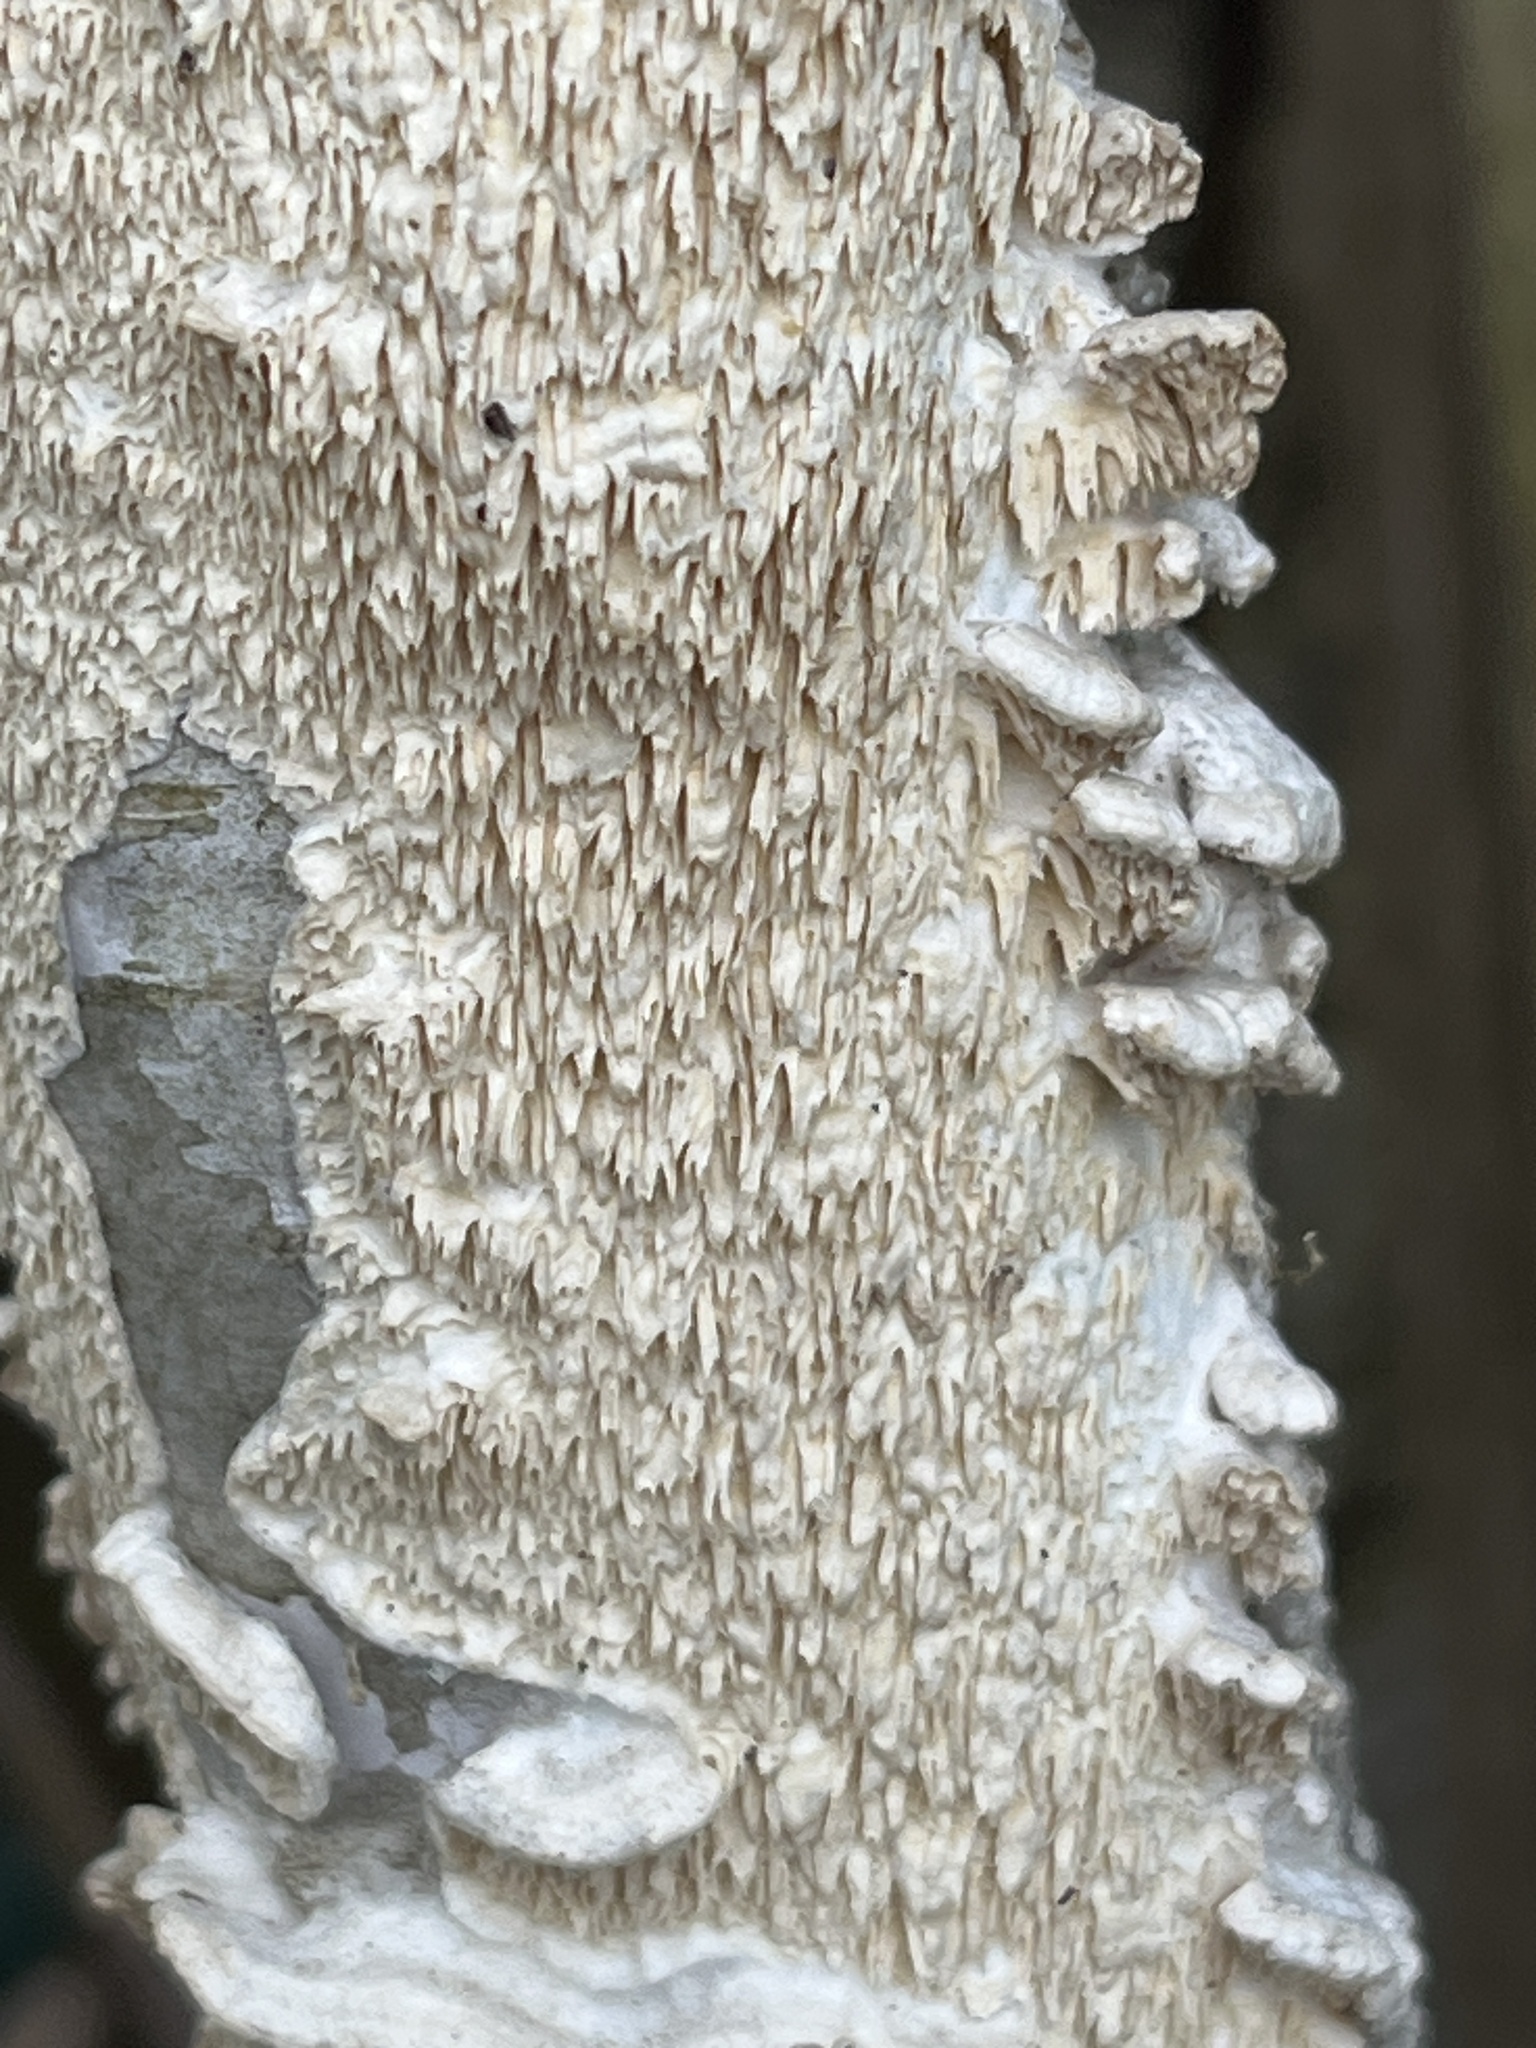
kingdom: Fungi
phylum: Basidiomycota
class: Agaricomycetes
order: Polyporales
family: Irpicaceae
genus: Irpex
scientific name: Irpex lacteus
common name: Milk-white toothed polypore
